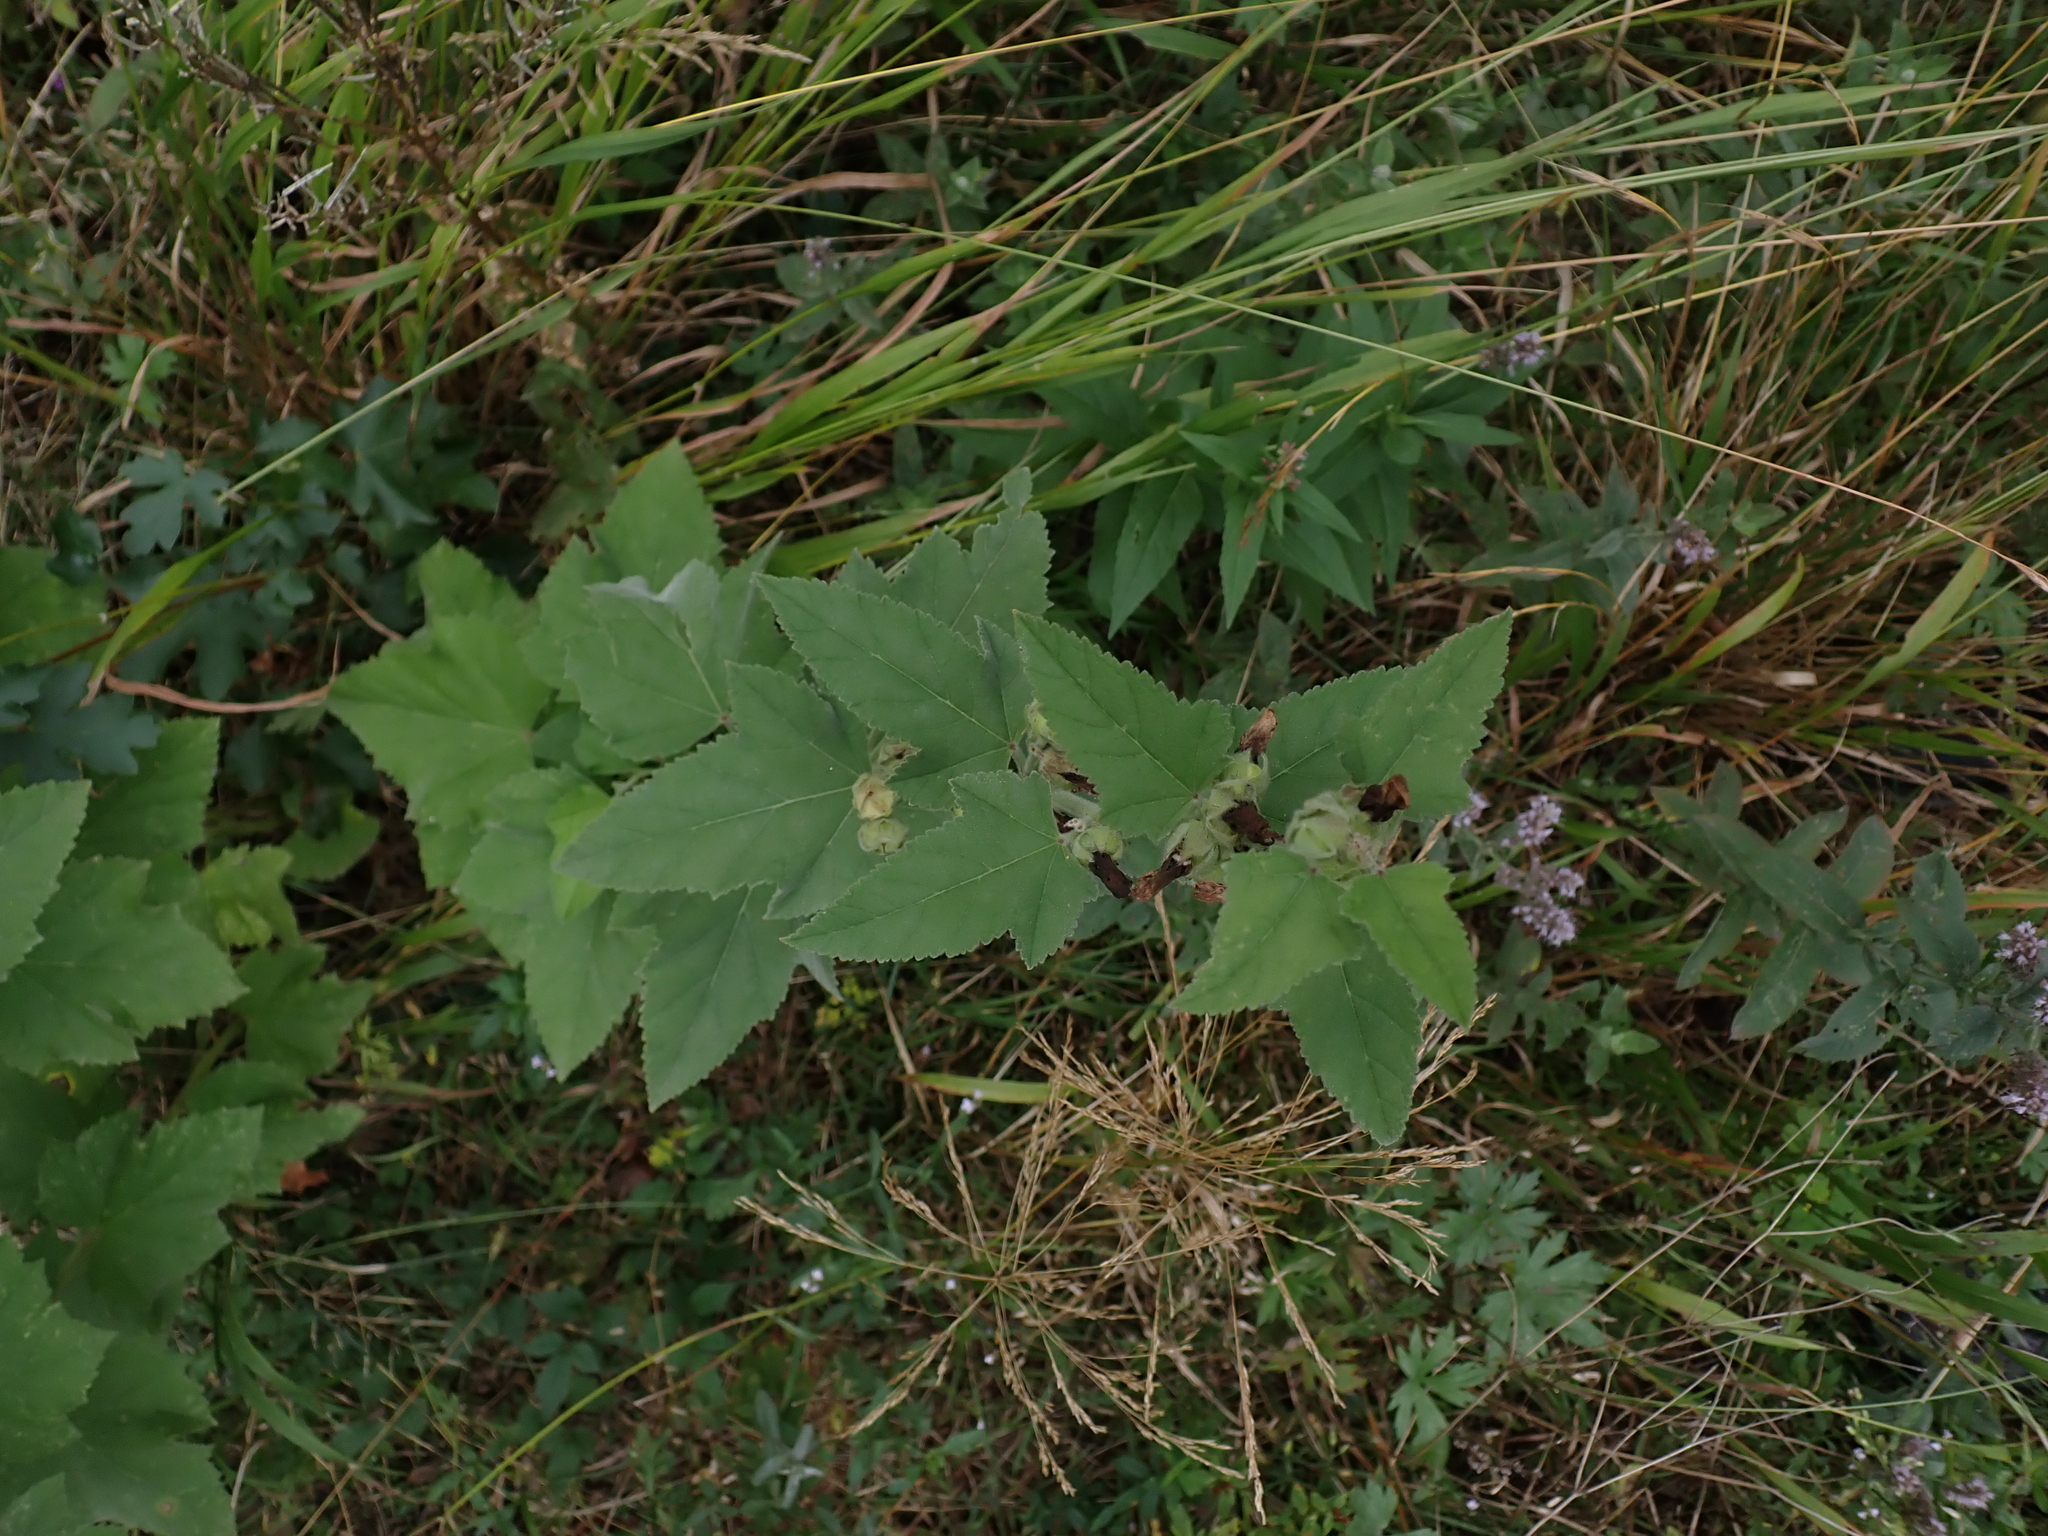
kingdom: Plantae
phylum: Tracheophyta
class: Magnoliopsida
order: Malvales
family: Malvaceae
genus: Althaea
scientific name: Althaea taurinensis
